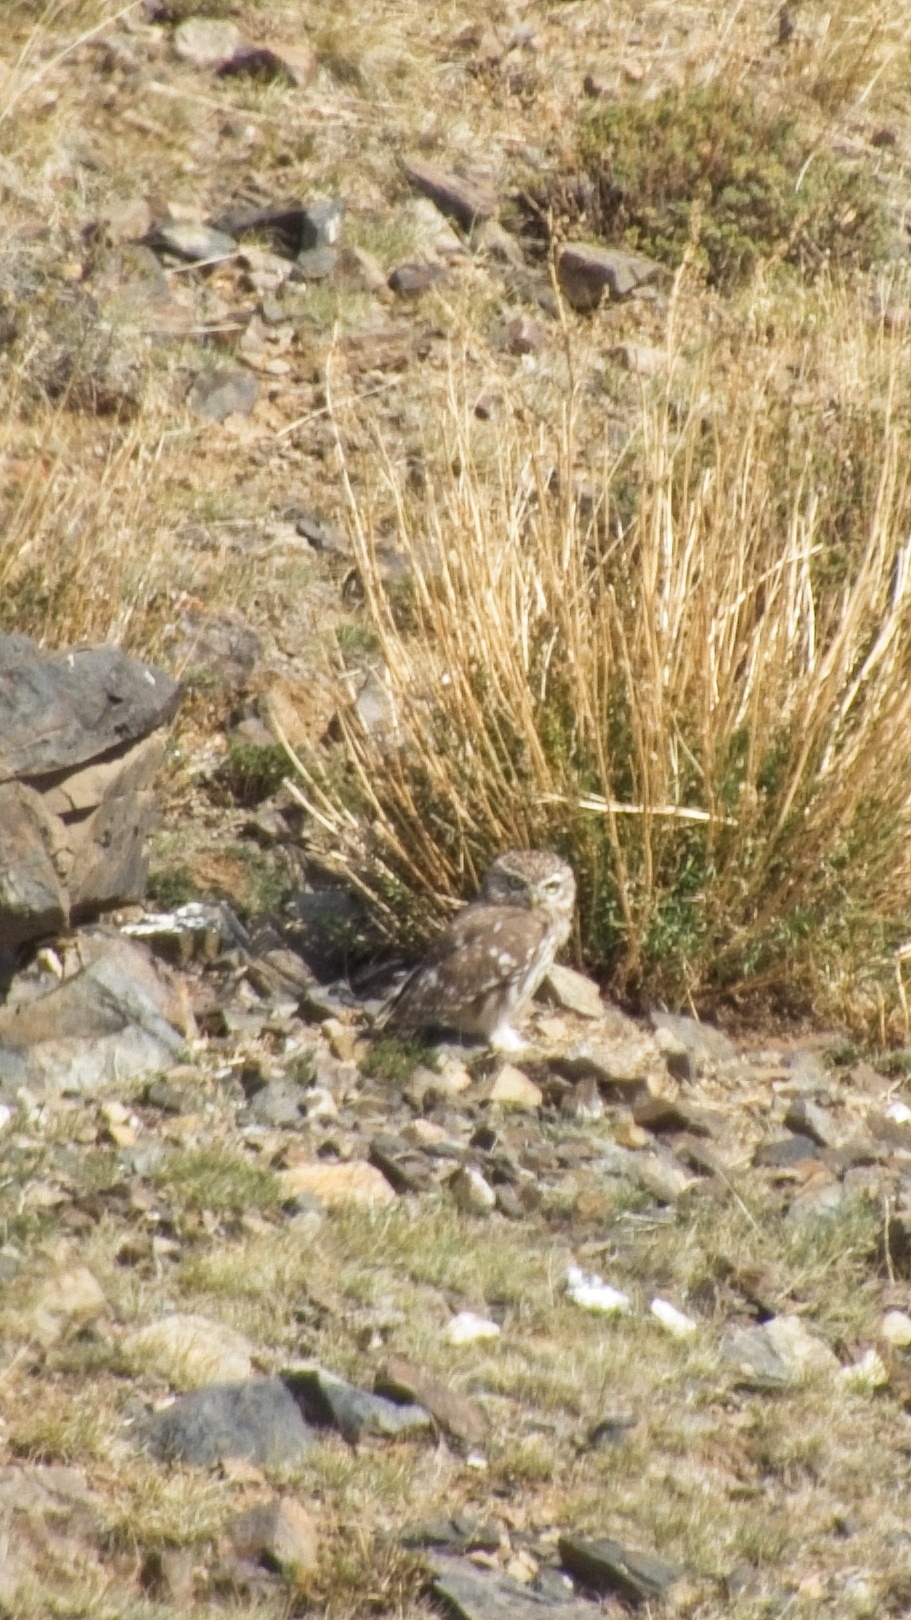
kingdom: Animalia
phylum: Chordata
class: Aves
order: Strigiformes
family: Strigidae
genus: Athene
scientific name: Athene noctua
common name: Little owl
